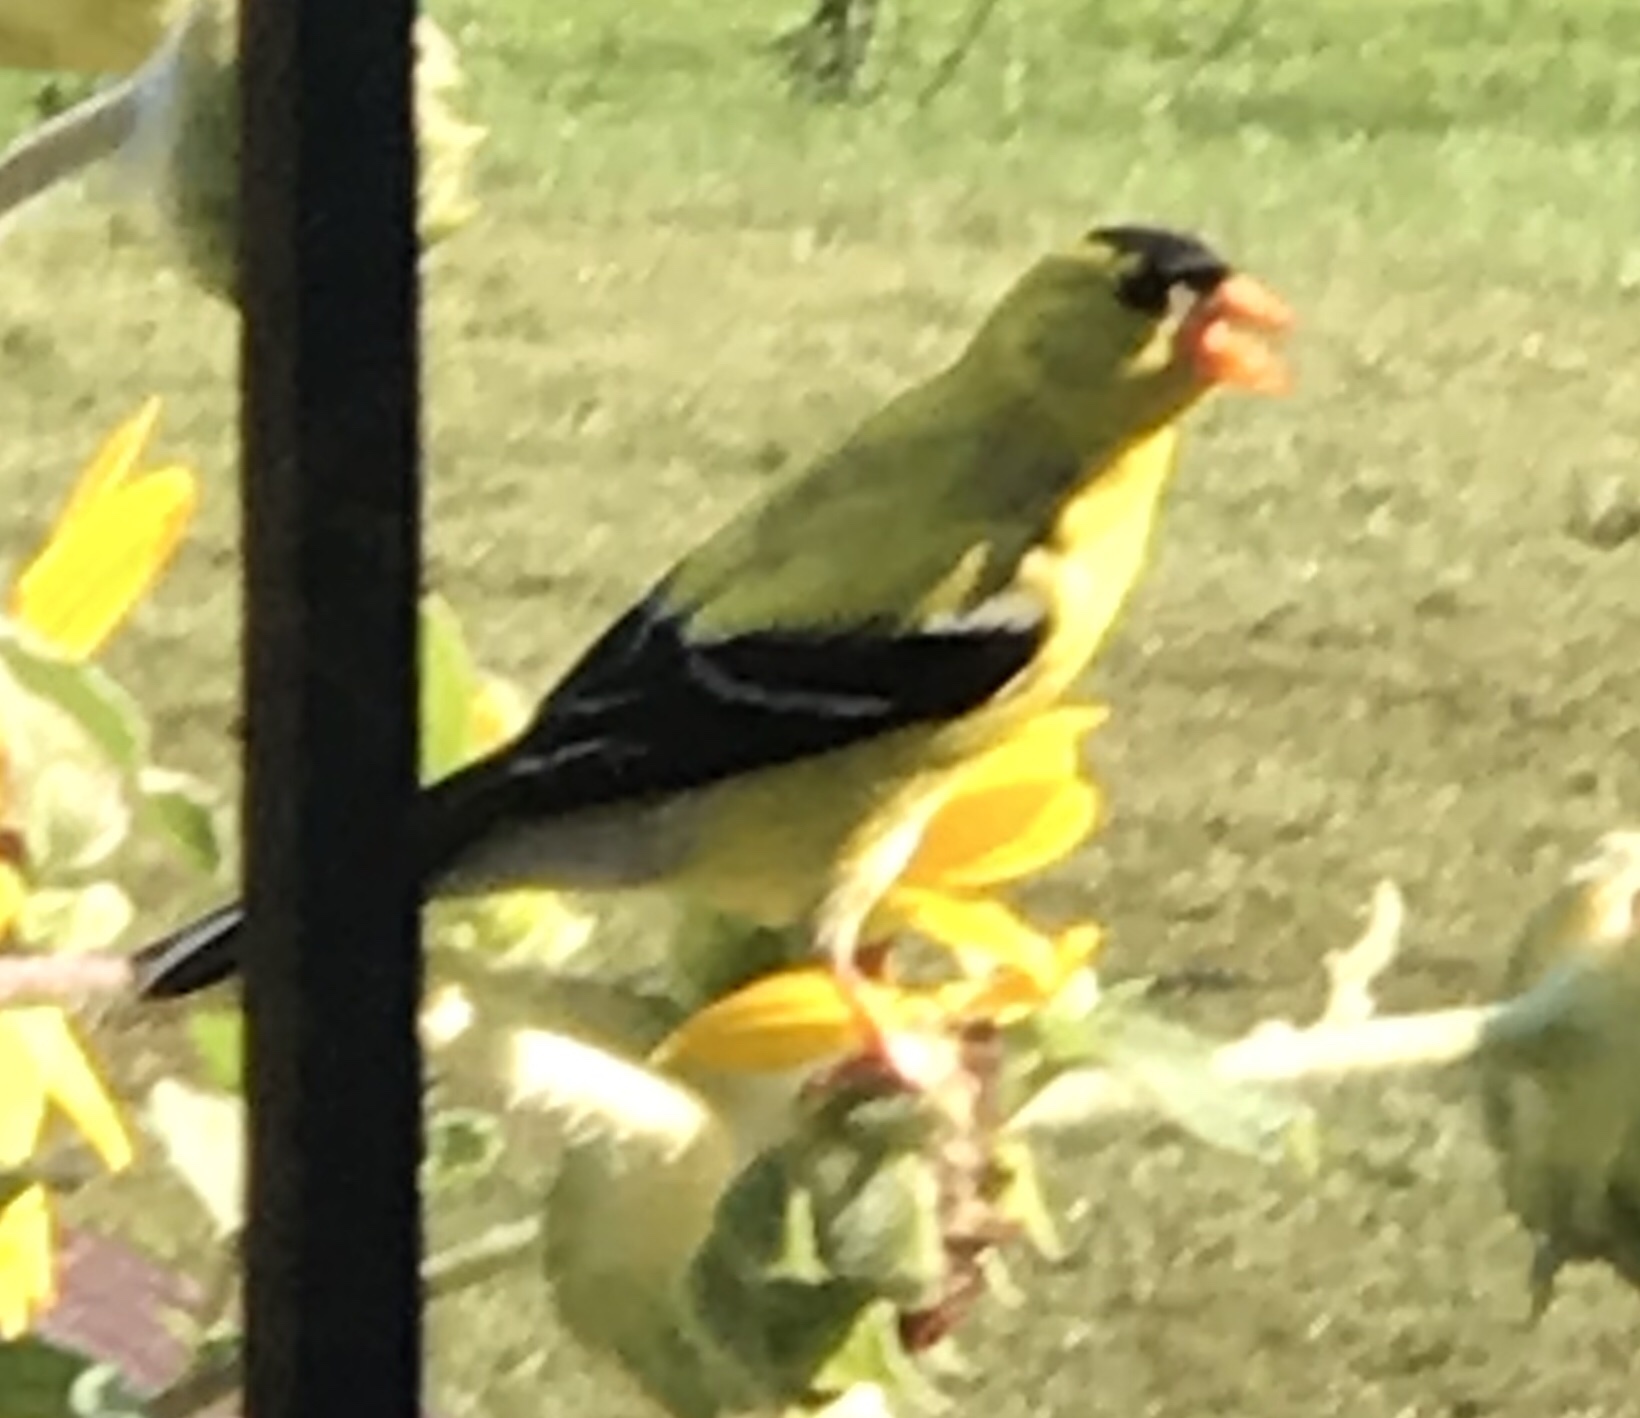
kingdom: Animalia
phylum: Chordata
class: Aves
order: Passeriformes
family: Fringillidae
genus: Spinus
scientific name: Spinus tristis
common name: American goldfinch
